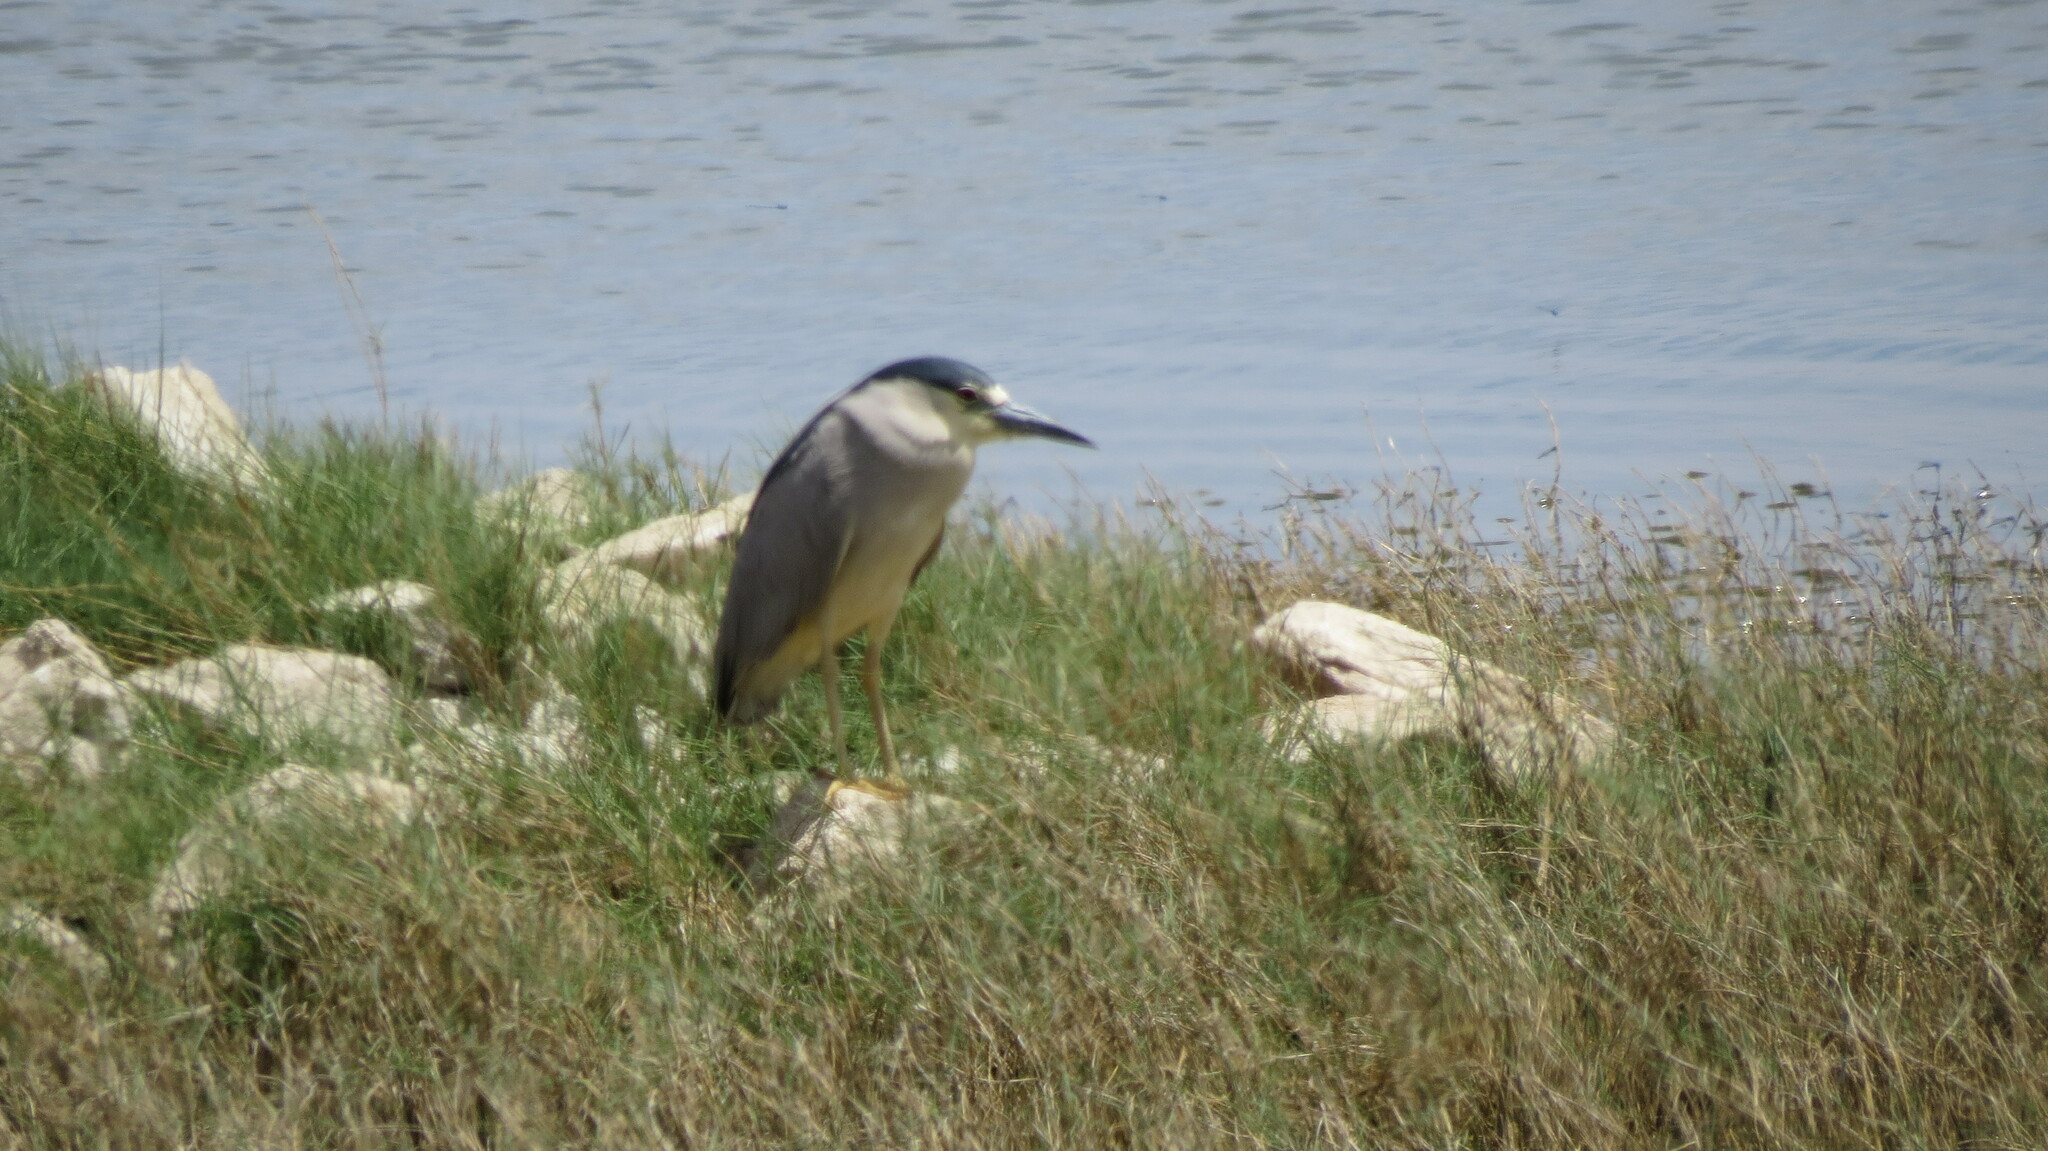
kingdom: Animalia
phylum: Chordata
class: Aves
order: Pelecaniformes
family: Ardeidae
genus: Nycticorax
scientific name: Nycticorax nycticorax
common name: Black-crowned night heron
